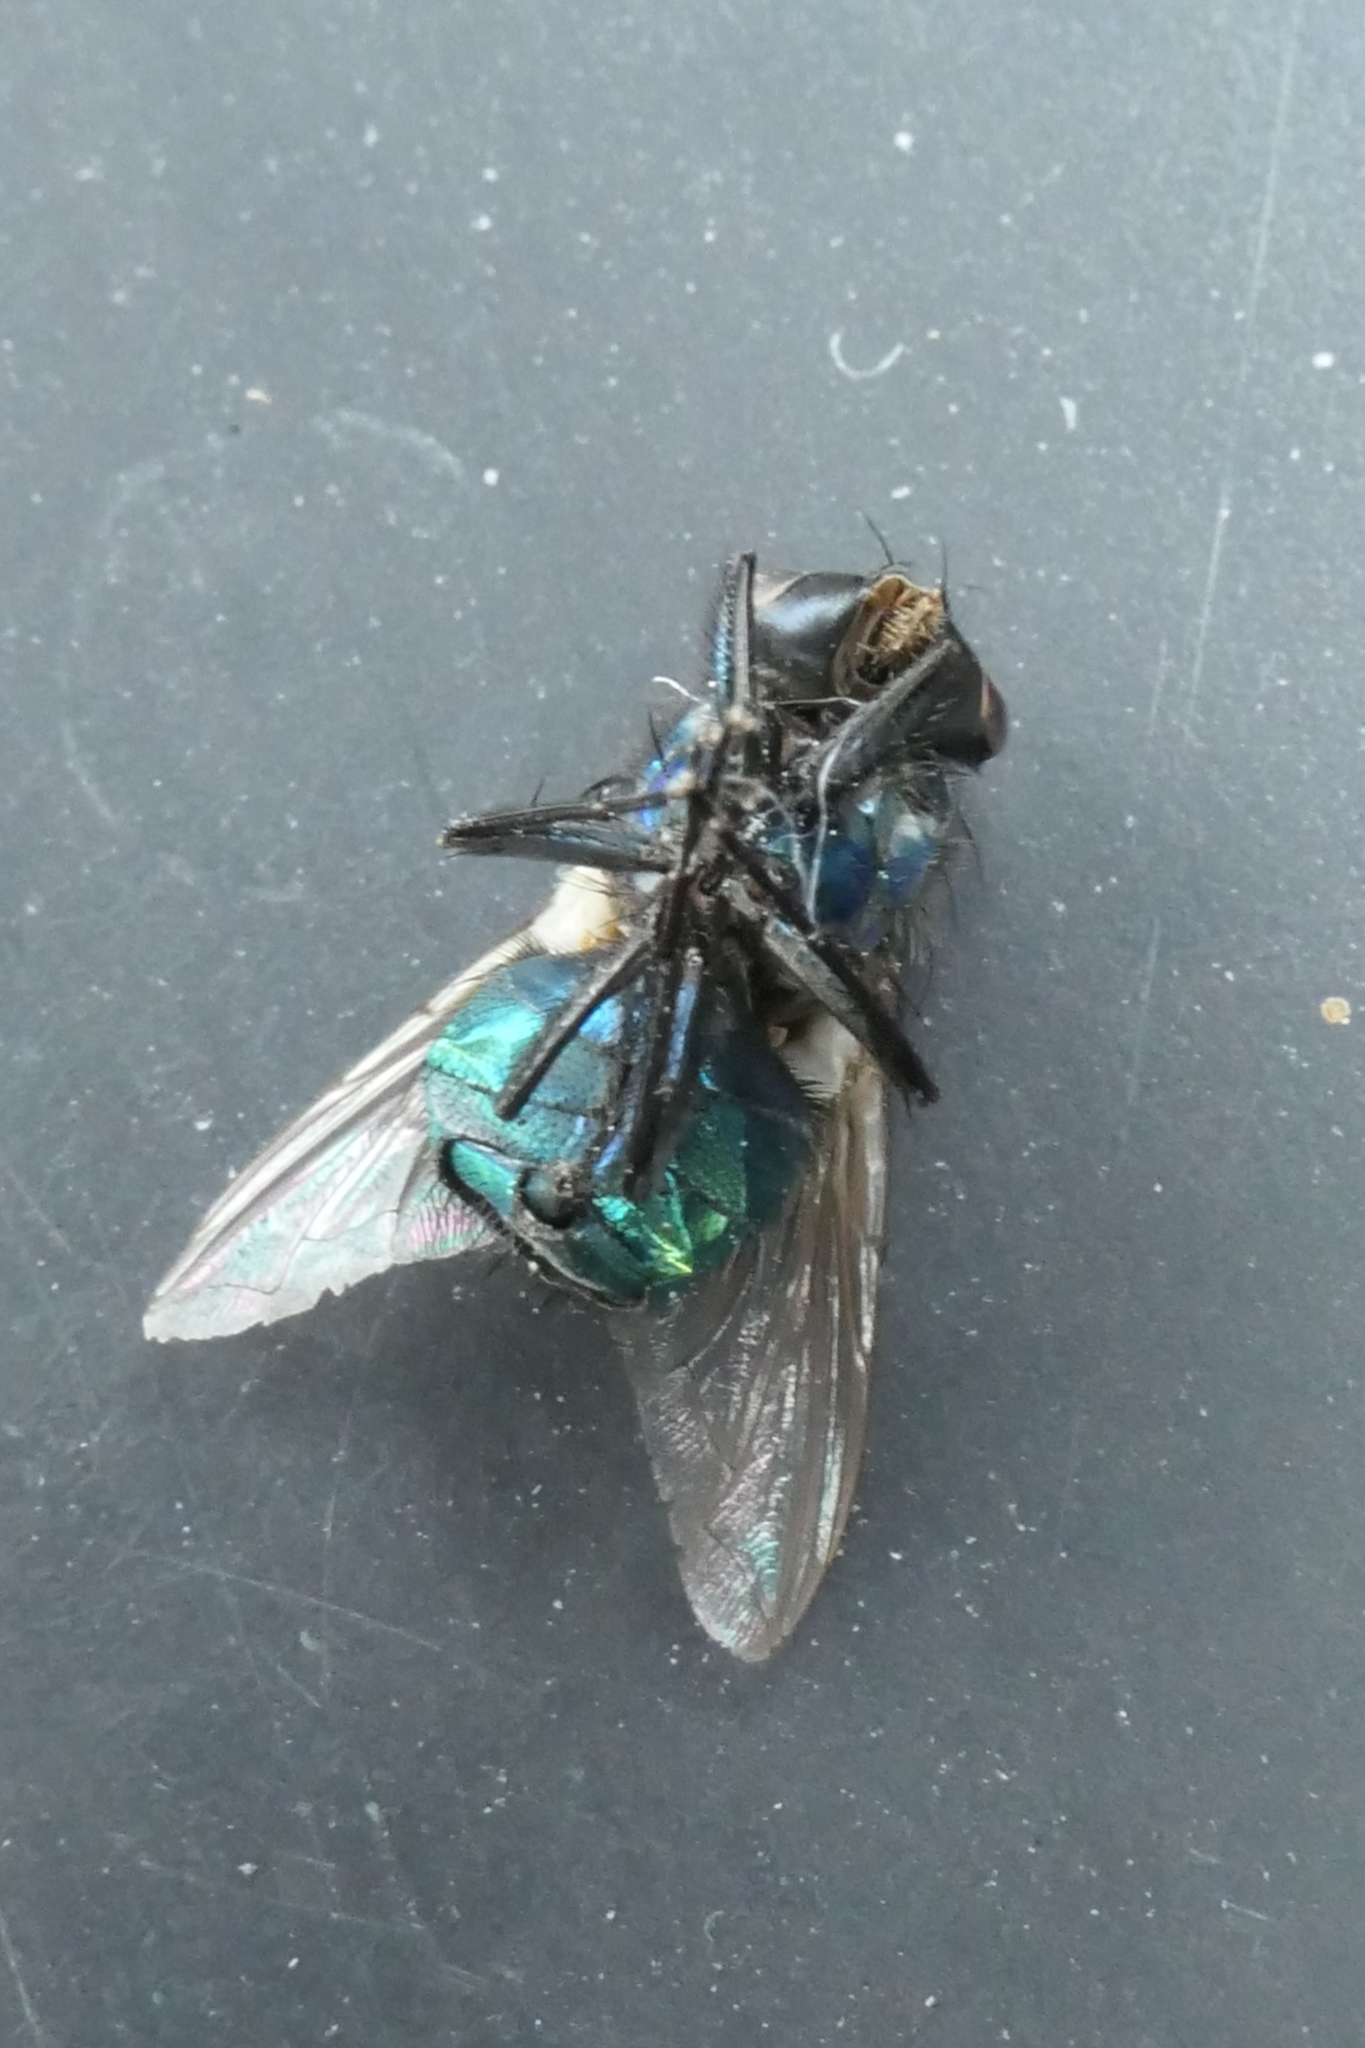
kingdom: Animalia
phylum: Arthropoda
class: Insecta
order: Diptera
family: Calliphoridae
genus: Lucilia
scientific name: Lucilia sericata
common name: Blow fly
